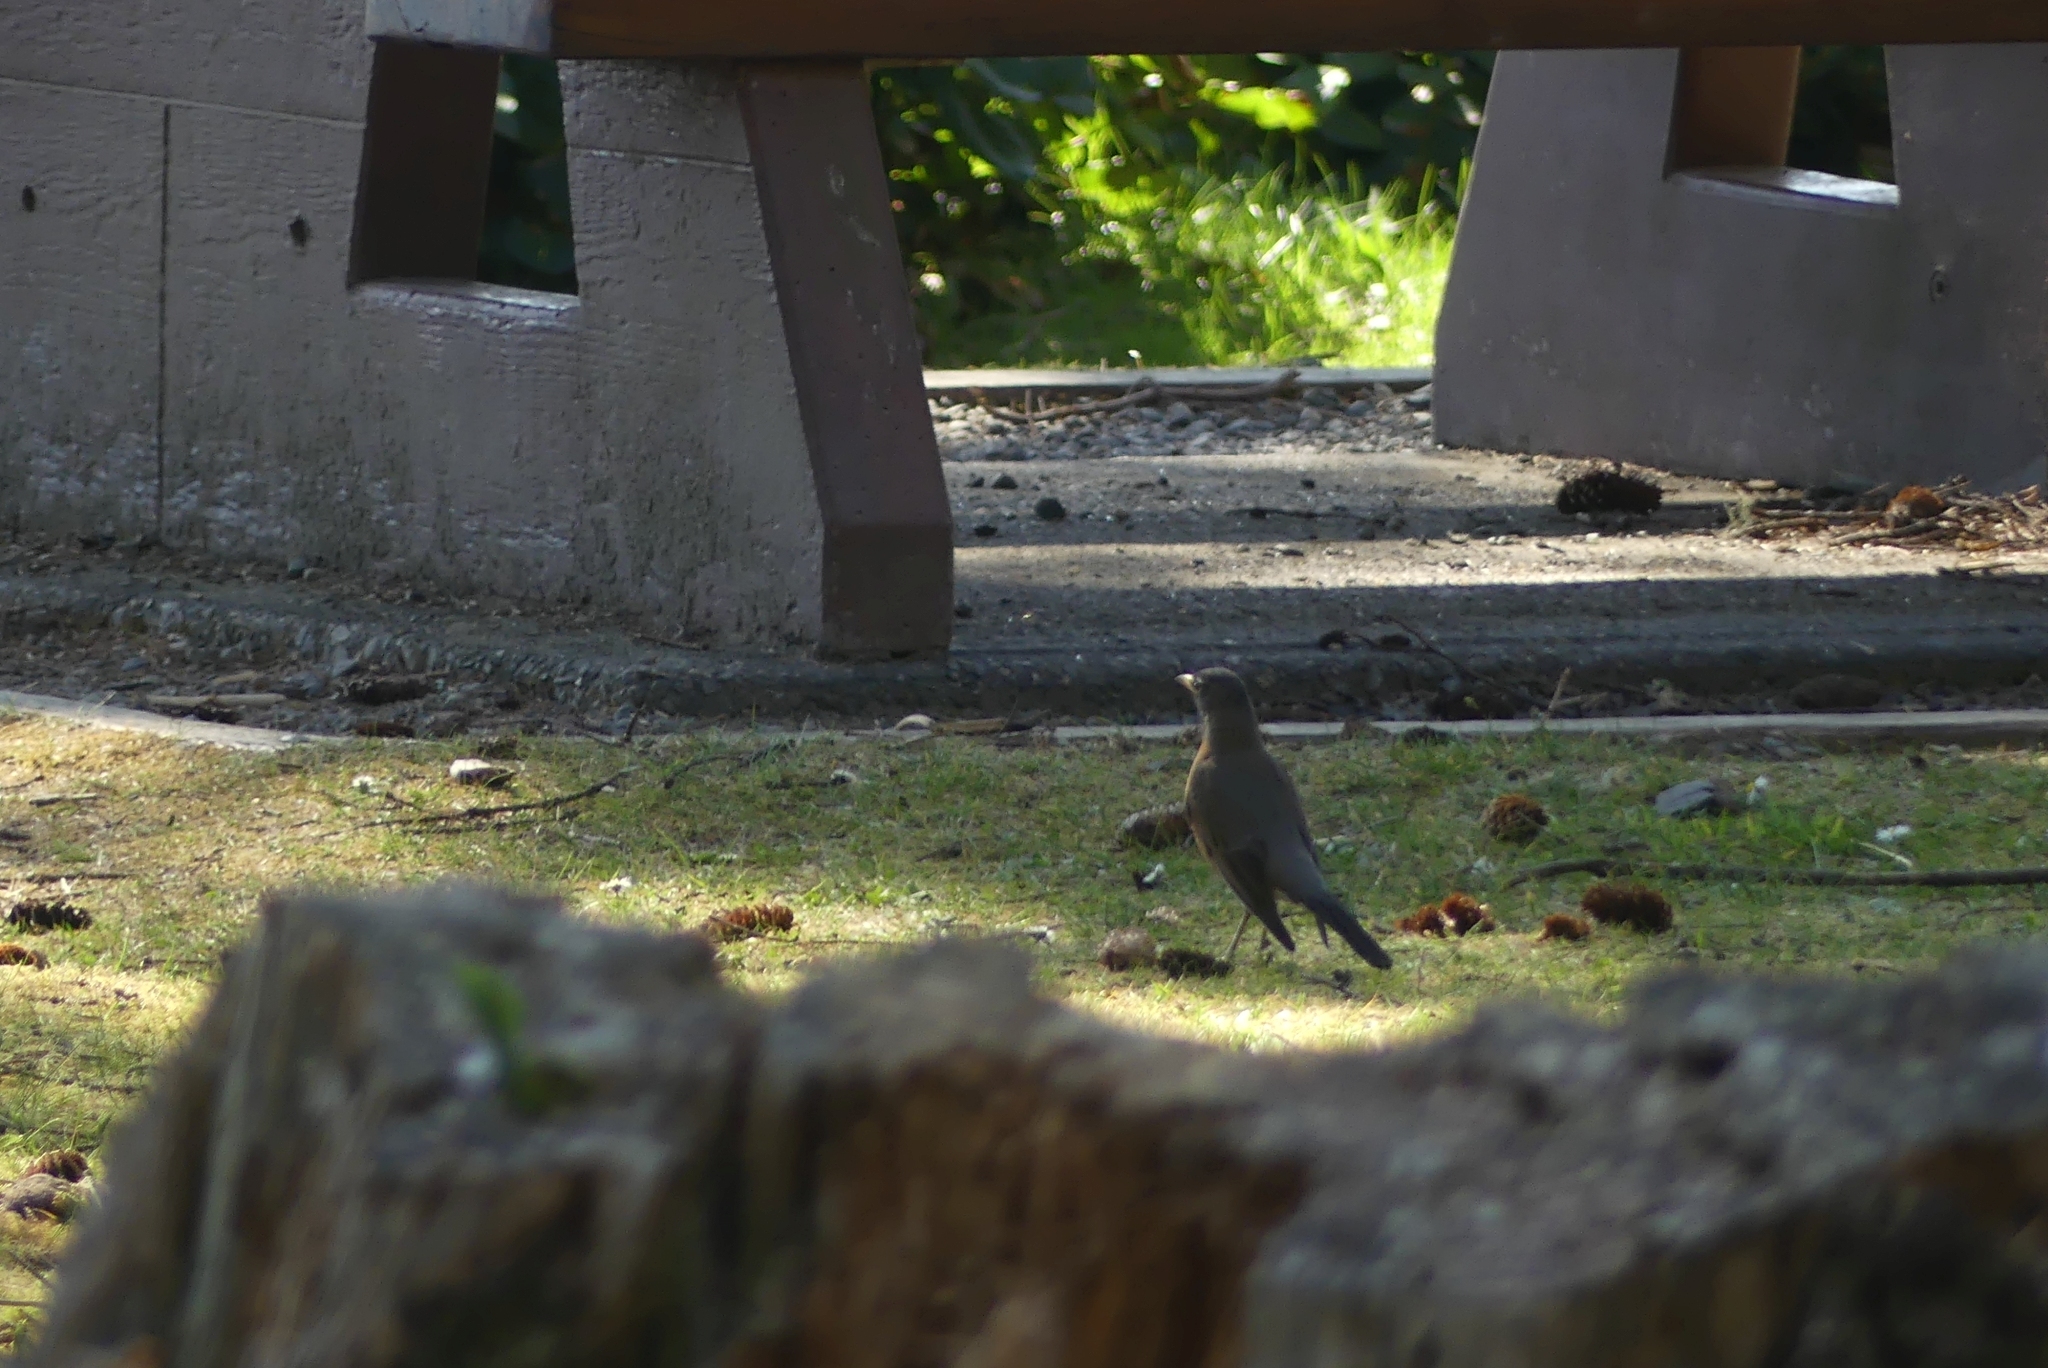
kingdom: Animalia
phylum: Chordata
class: Aves
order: Passeriformes
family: Turdidae
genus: Turdus
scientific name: Turdus migratorius
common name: American robin
